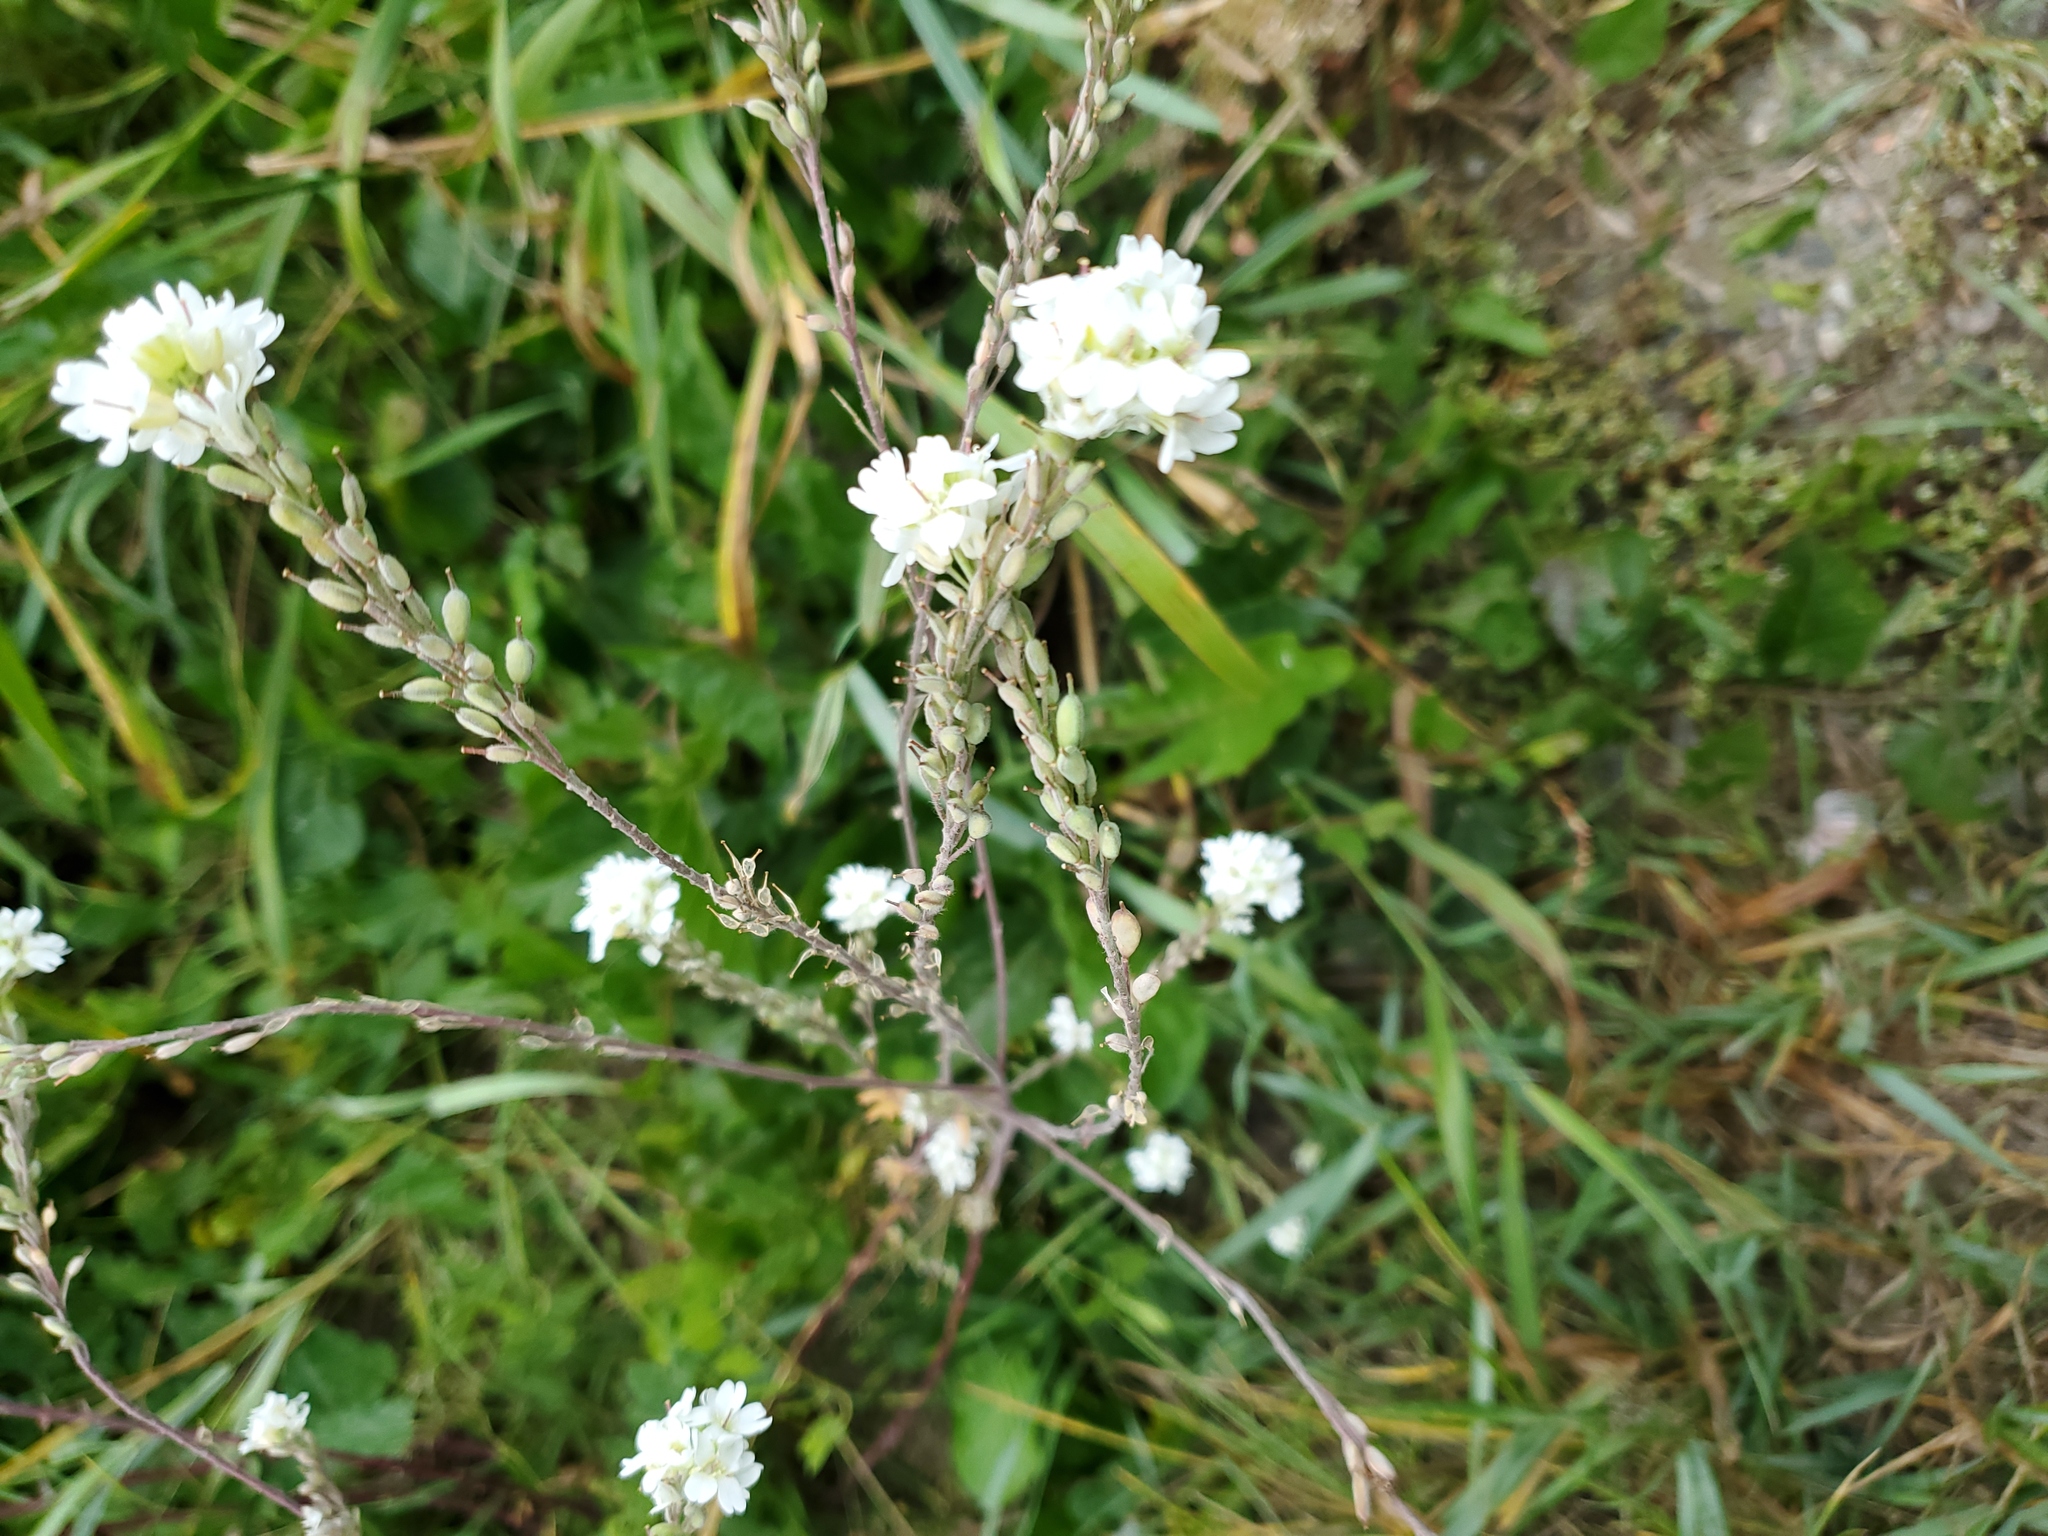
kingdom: Plantae
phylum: Tracheophyta
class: Magnoliopsida
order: Brassicales
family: Brassicaceae
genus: Berteroa
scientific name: Berteroa incana
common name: Hoary alison
